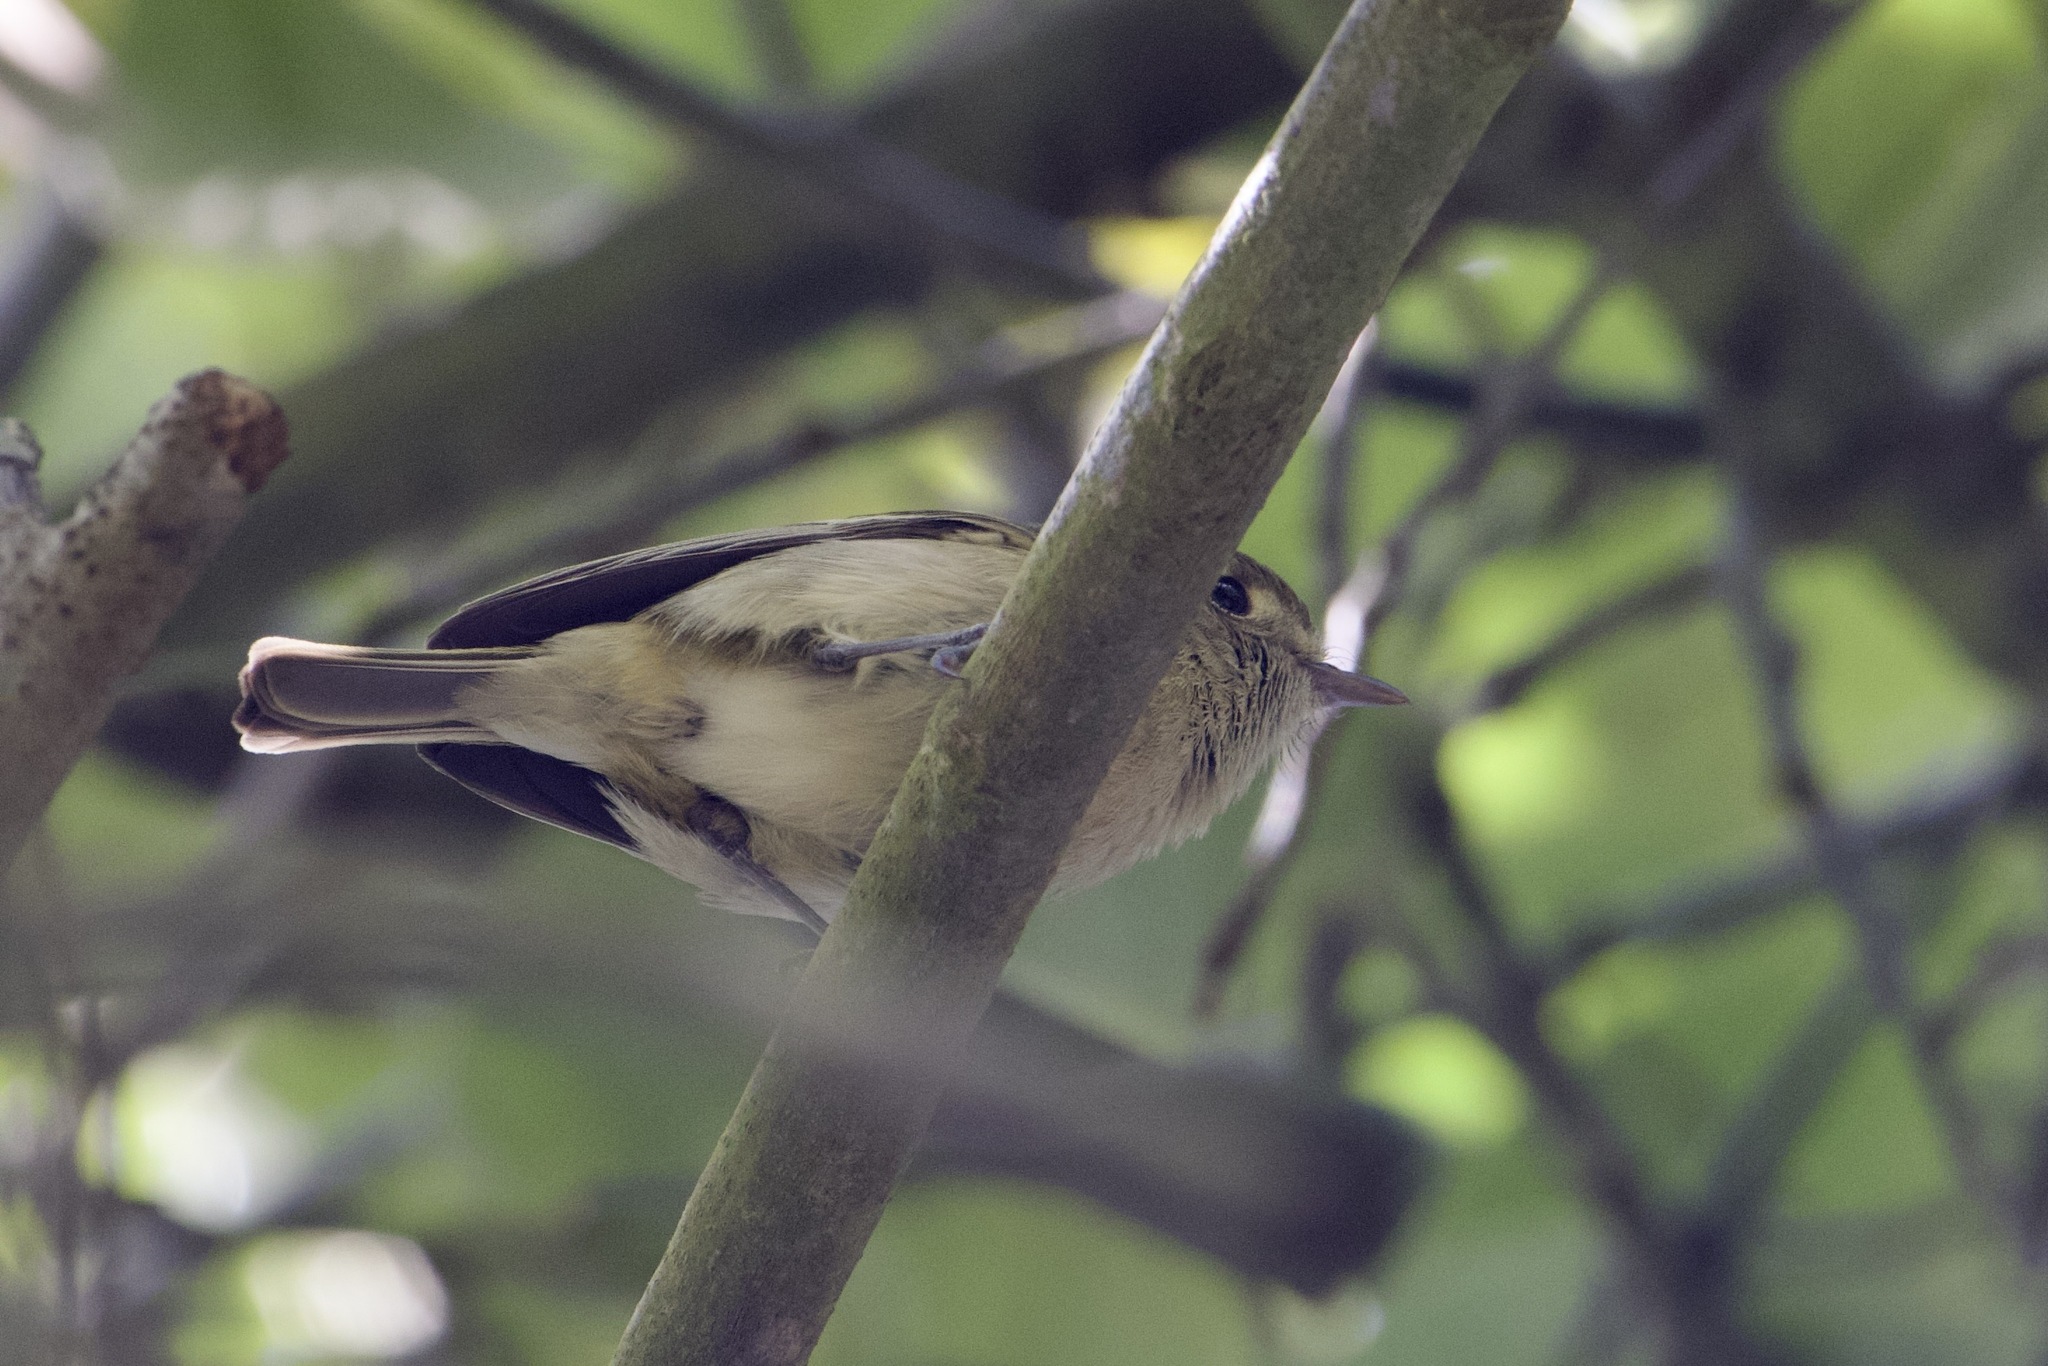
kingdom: Animalia
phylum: Chordata
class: Aves
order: Passeriformes
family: Vireonidae
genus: Vireo
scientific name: Vireo huttoni
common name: Hutton's vireo
